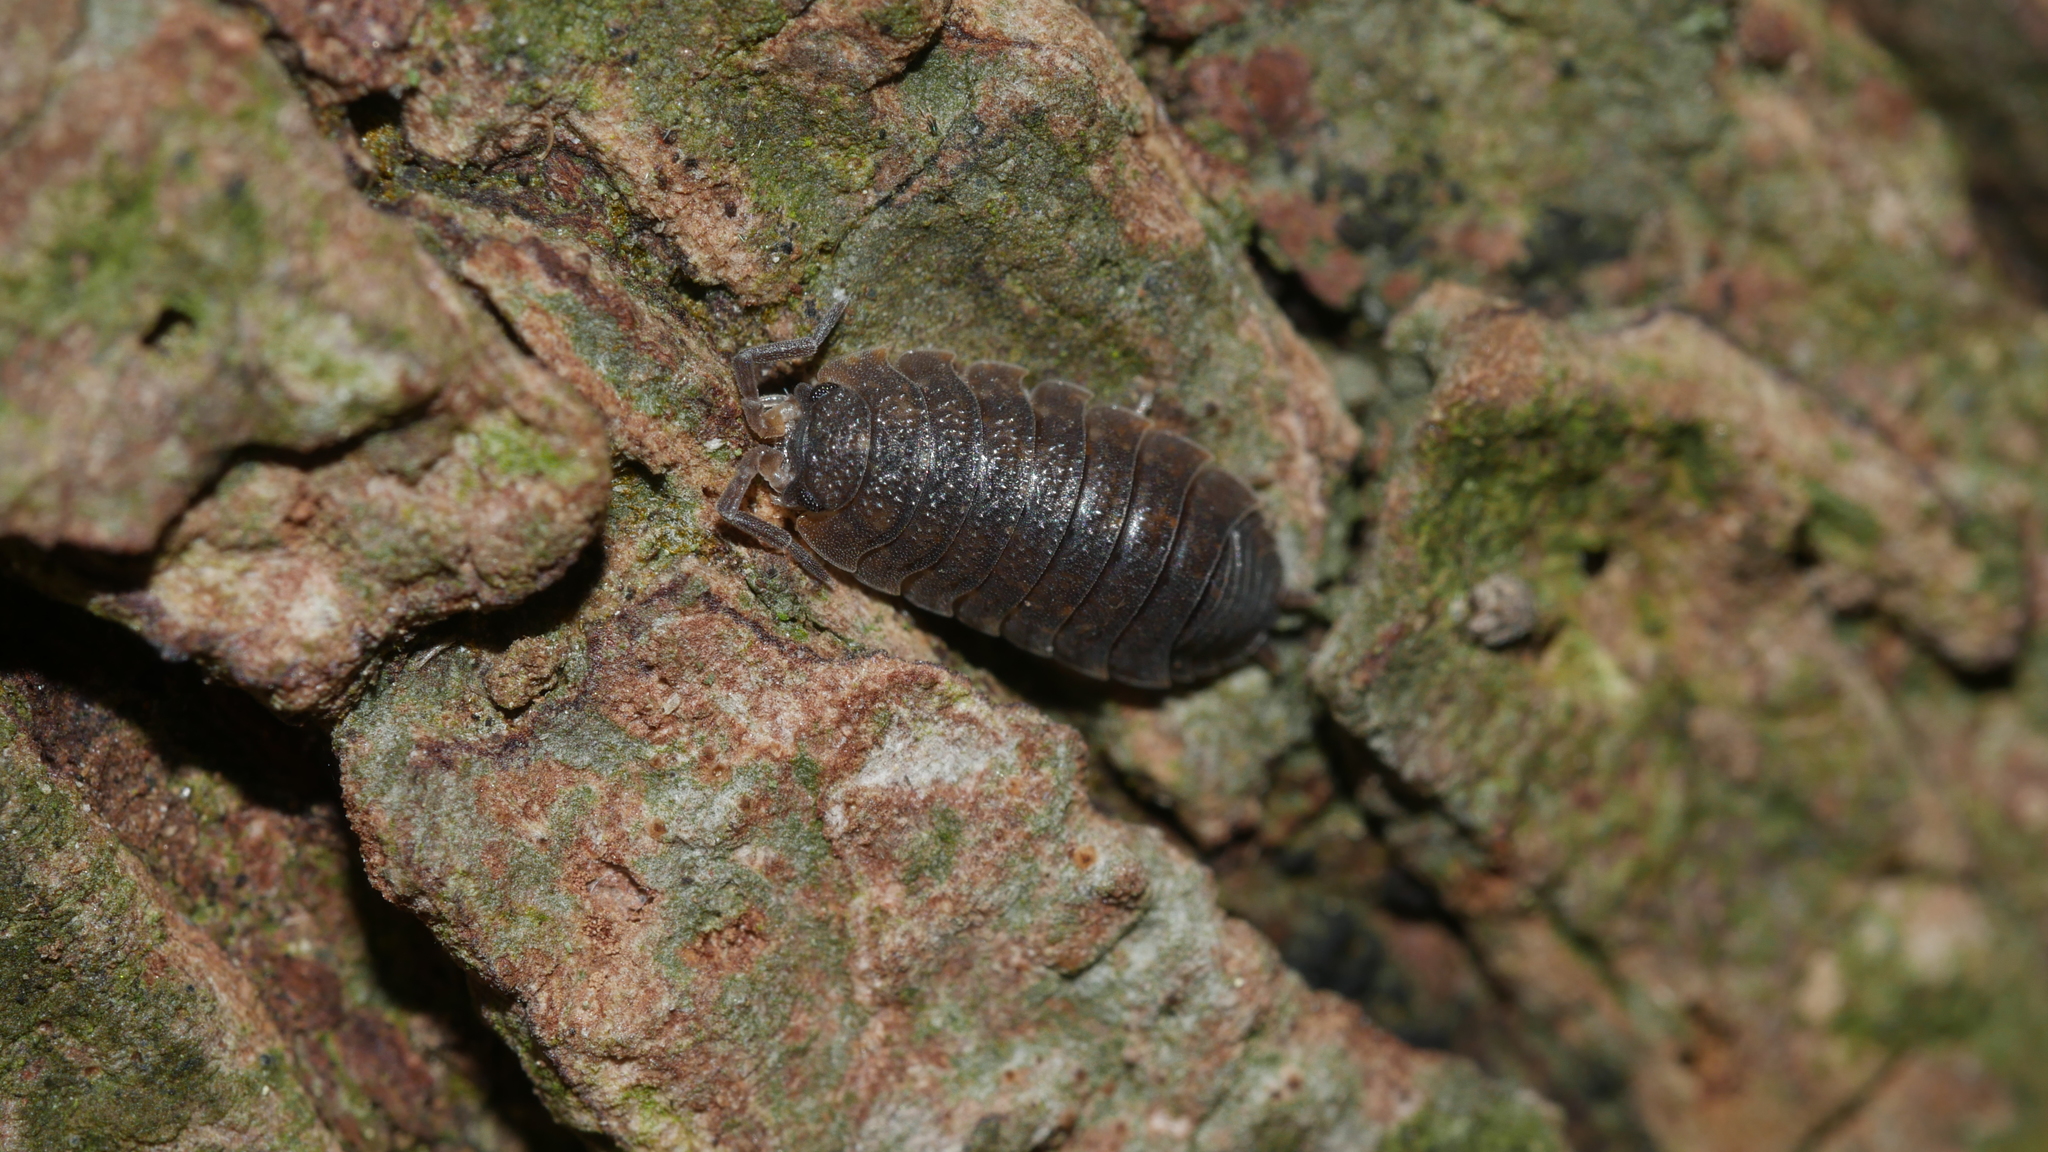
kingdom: Animalia
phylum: Arthropoda
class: Malacostraca
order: Isopoda
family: Porcellionidae
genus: Porcellio
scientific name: Porcellio scaber
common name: Common rough woodlouse
